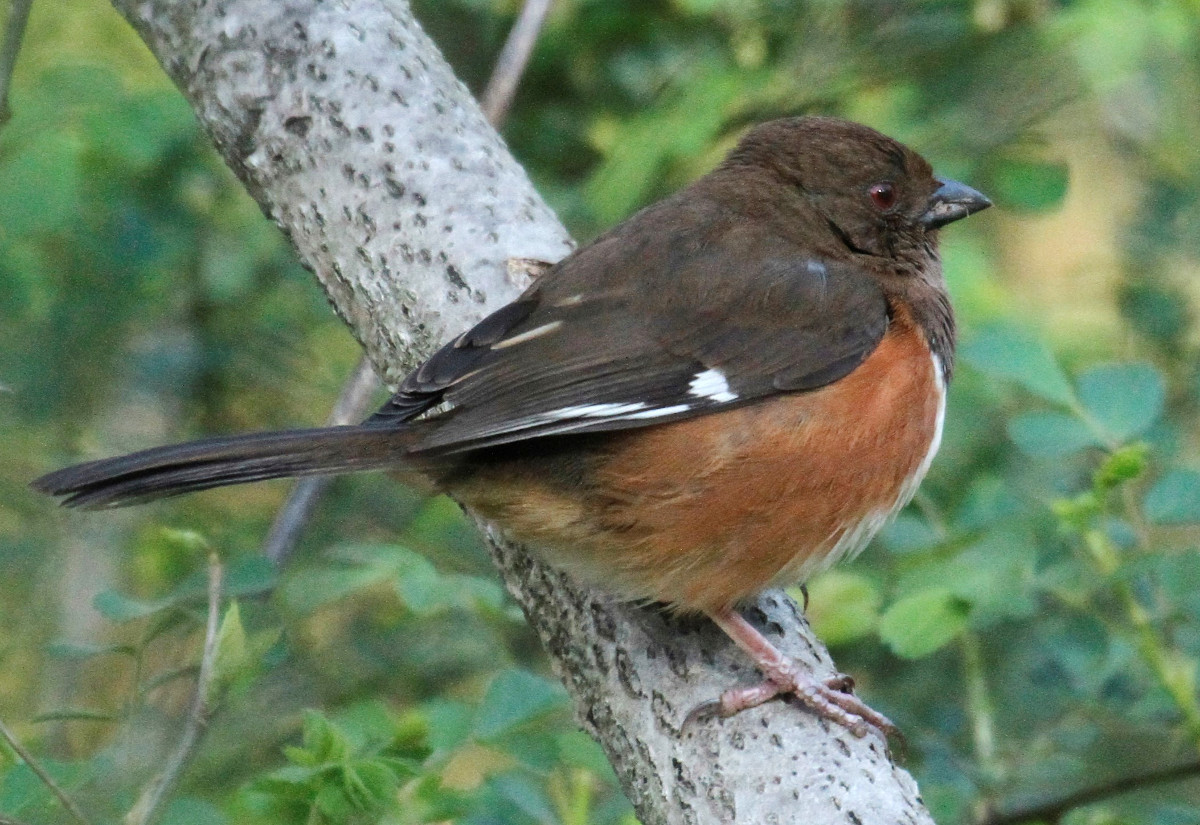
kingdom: Animalia
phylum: Chordata
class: Aves
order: Passeriformes
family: Passerellidae
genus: Pipilo
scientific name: Pipilo erythrophthalmus
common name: Eastern towhee
